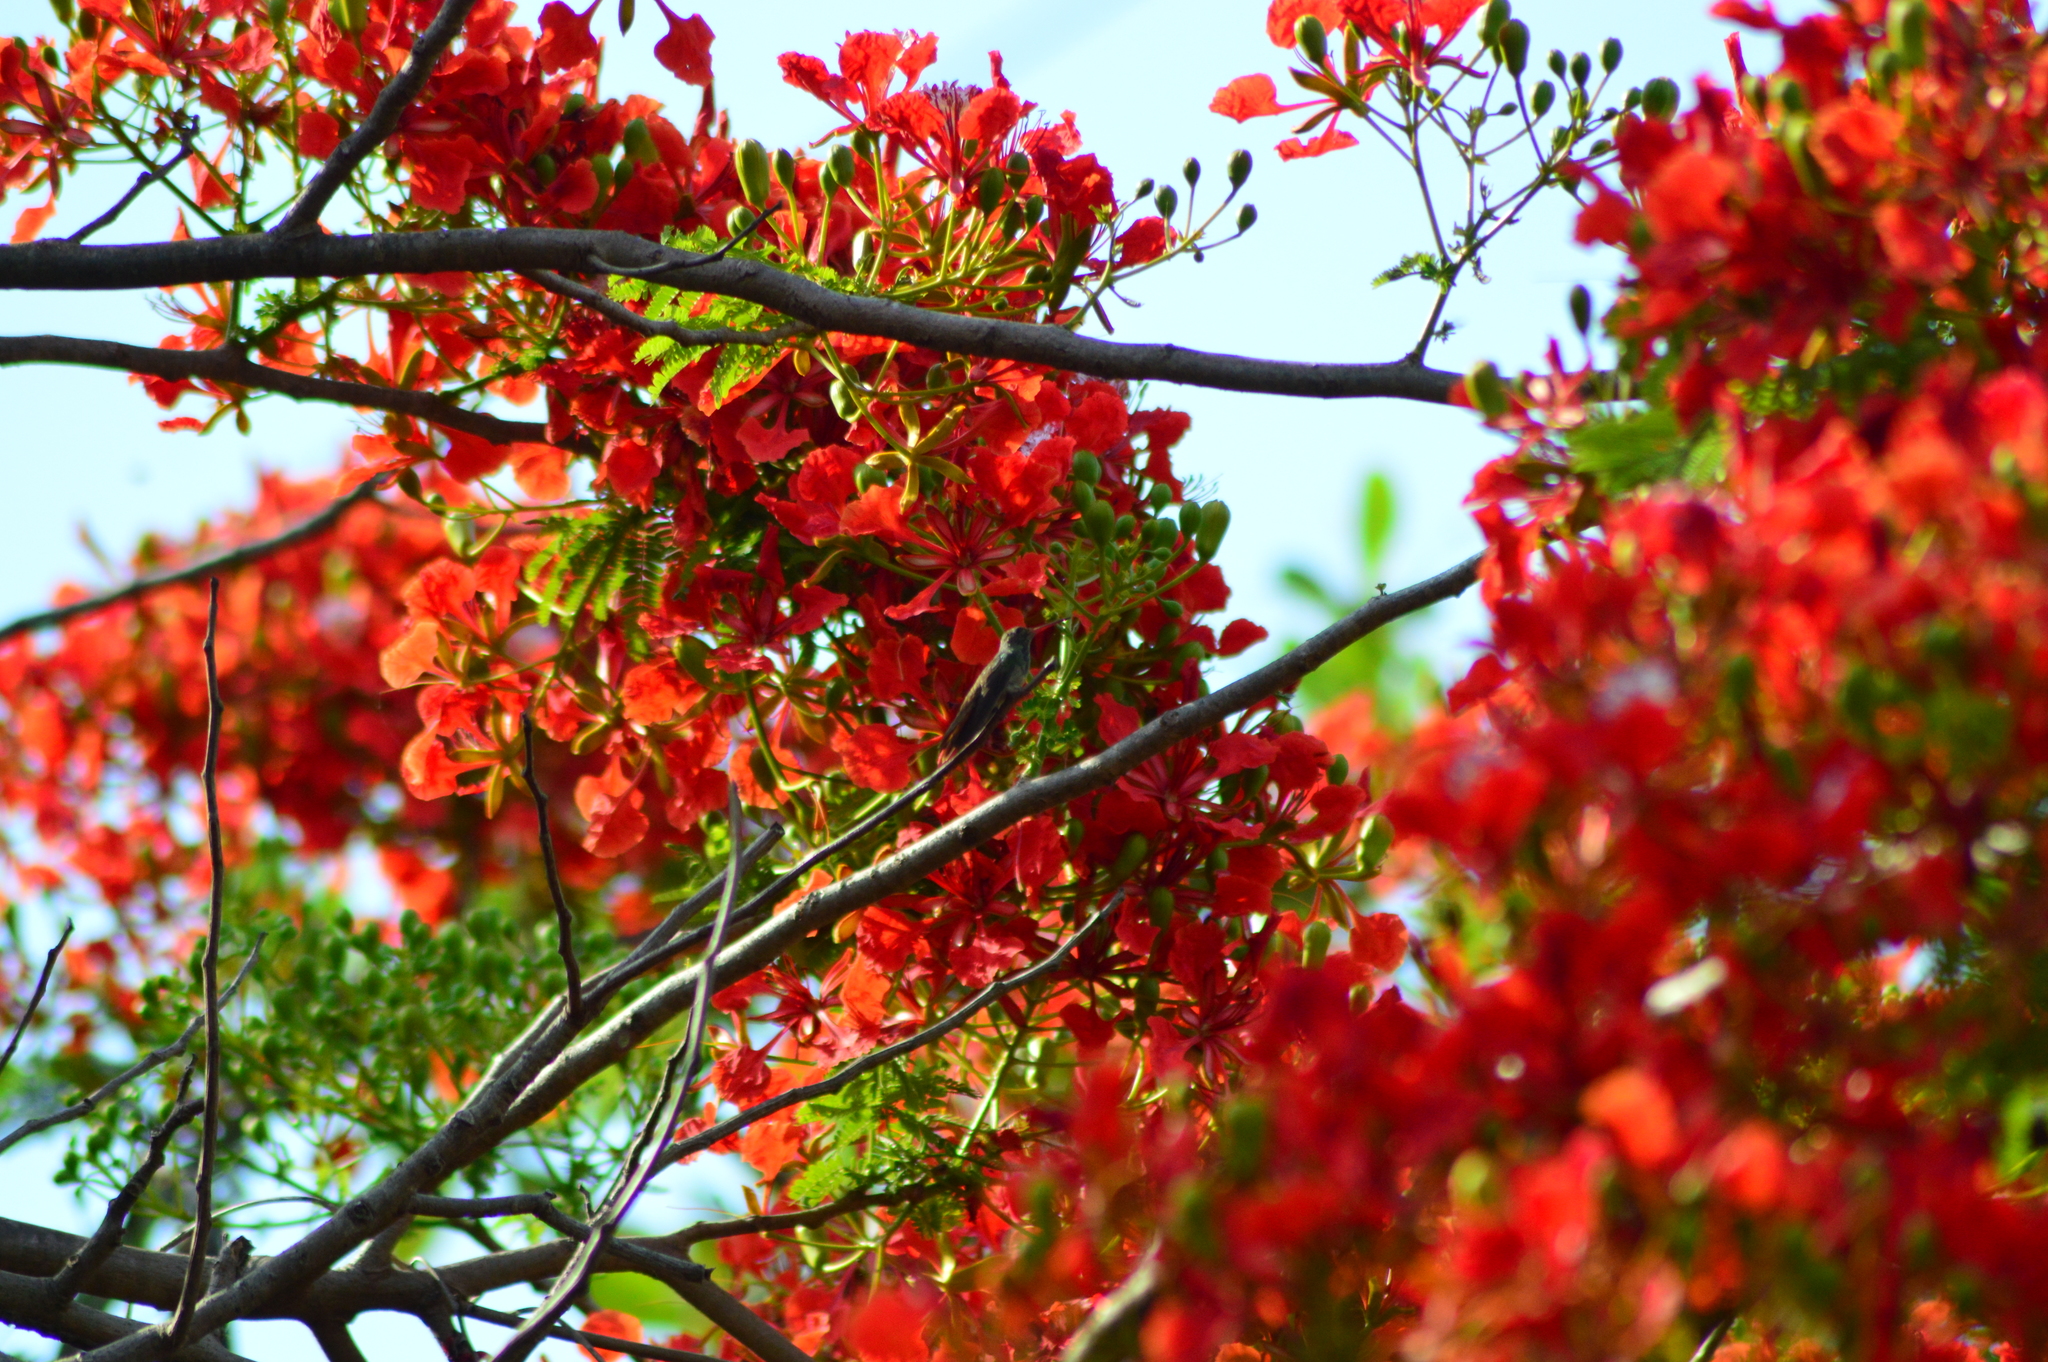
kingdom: Plantae
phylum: Tracheophyta
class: Magnoliopsida
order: Fabales
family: Fabaceae
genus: Delonix
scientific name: Delonix regia
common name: Royal poinciana
